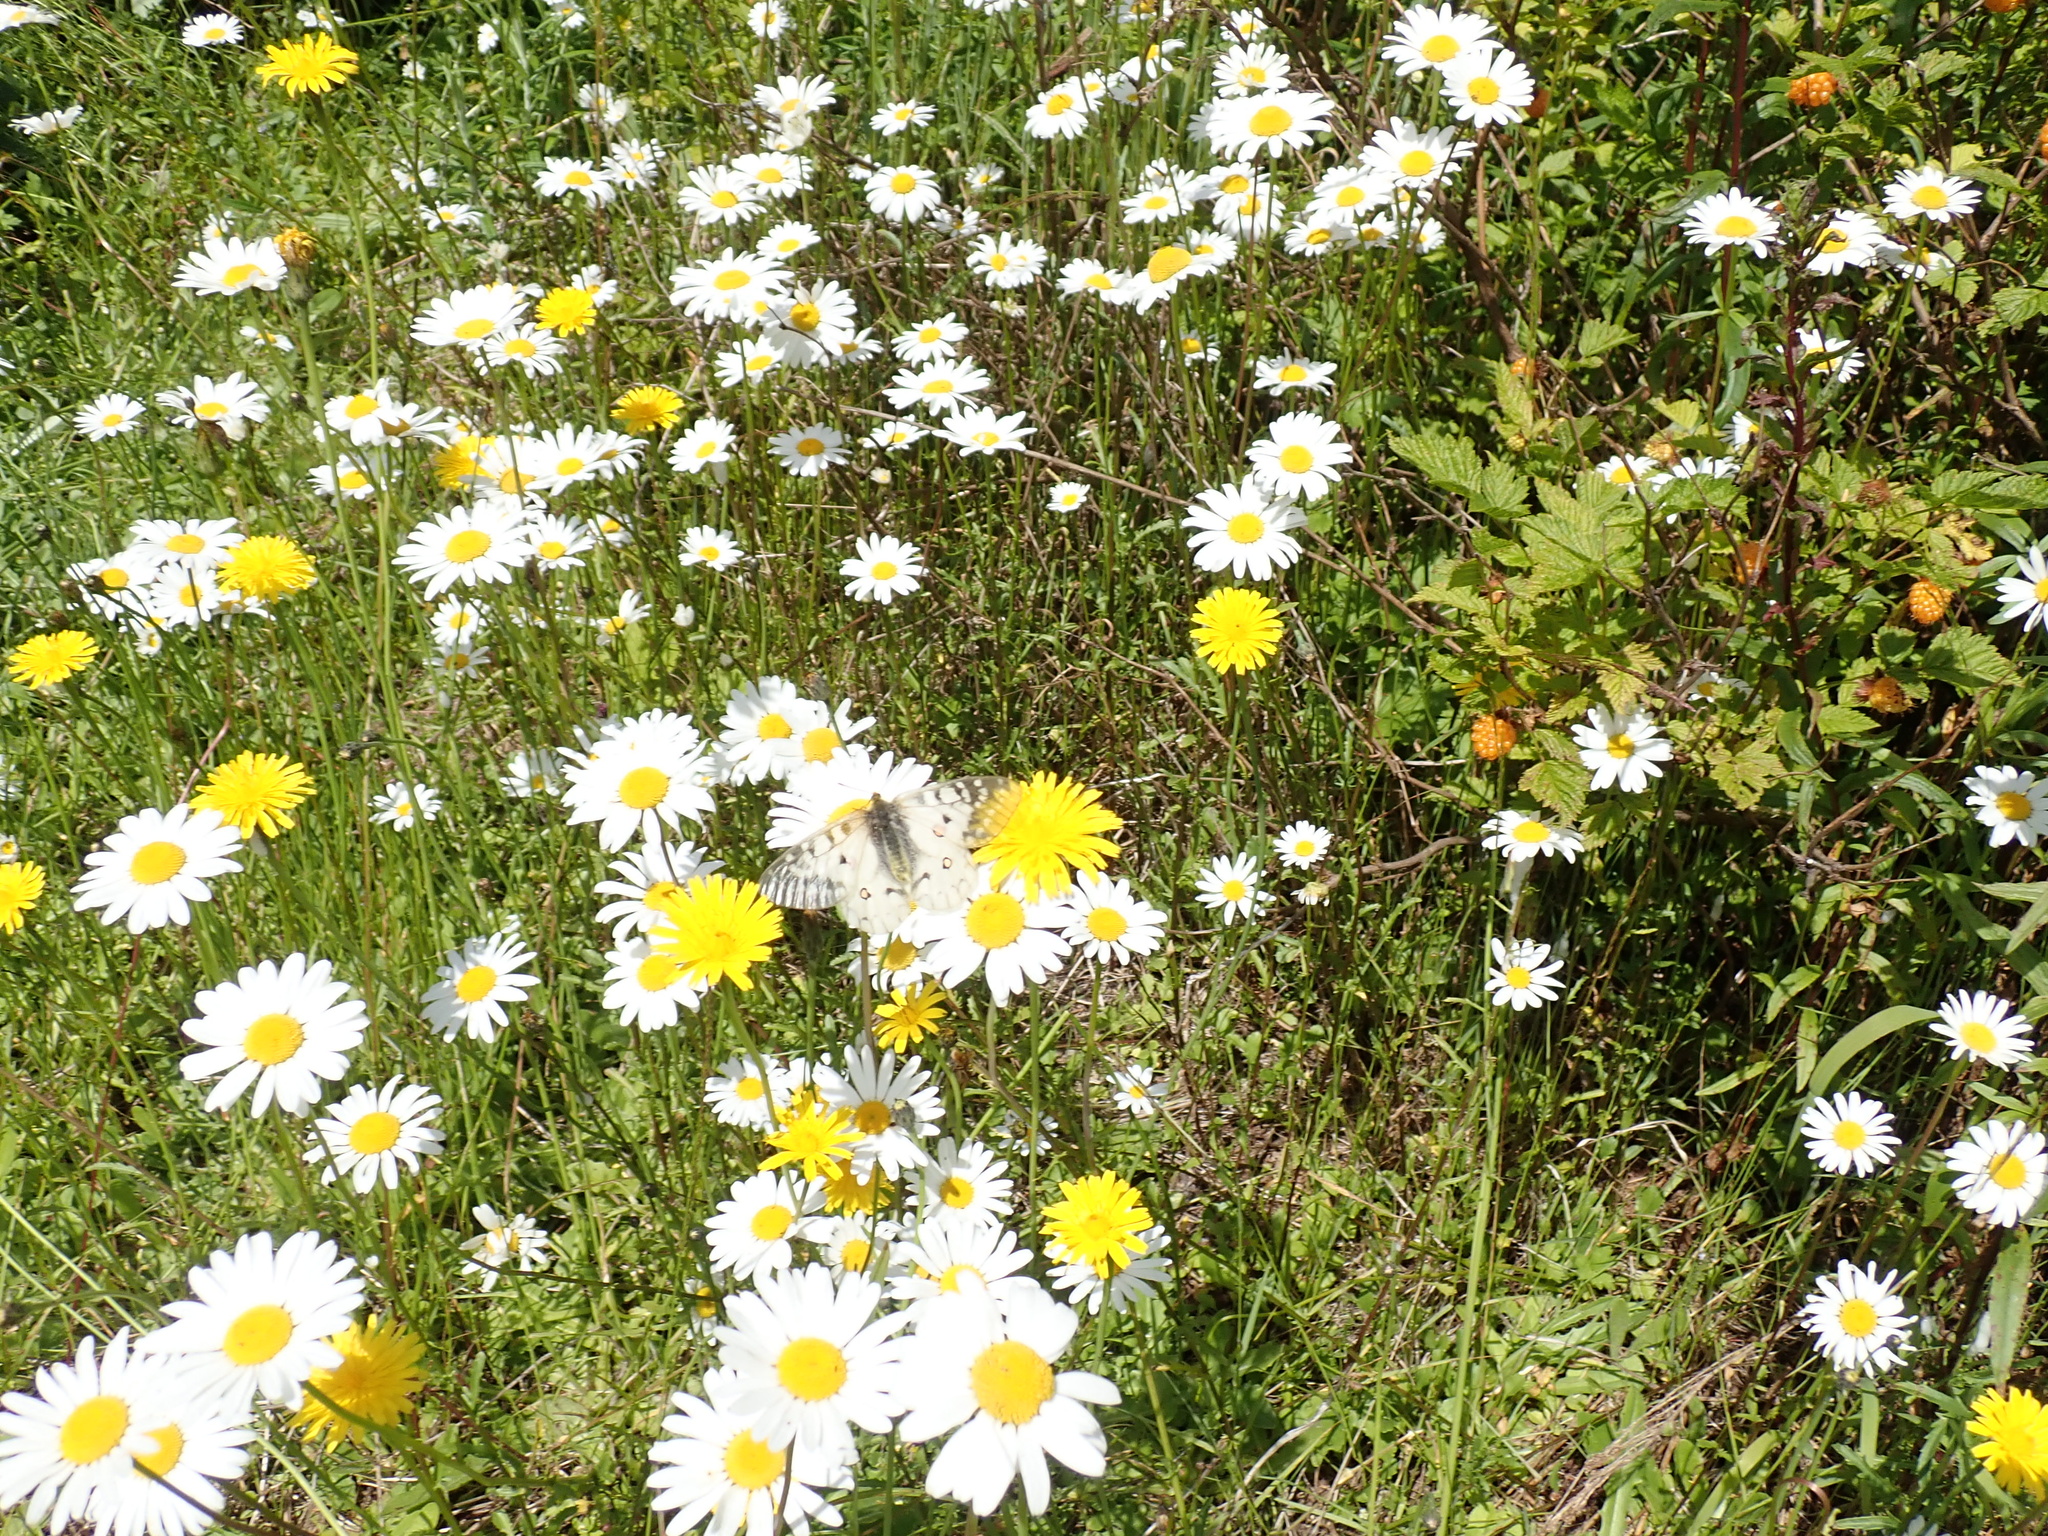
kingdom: Plantae
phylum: Tracheophyta
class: Magnoliopsida
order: Asterales
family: Asteraceae
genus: Leucanthemum
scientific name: Leucanthemum vulgare
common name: Oxeye daisy
